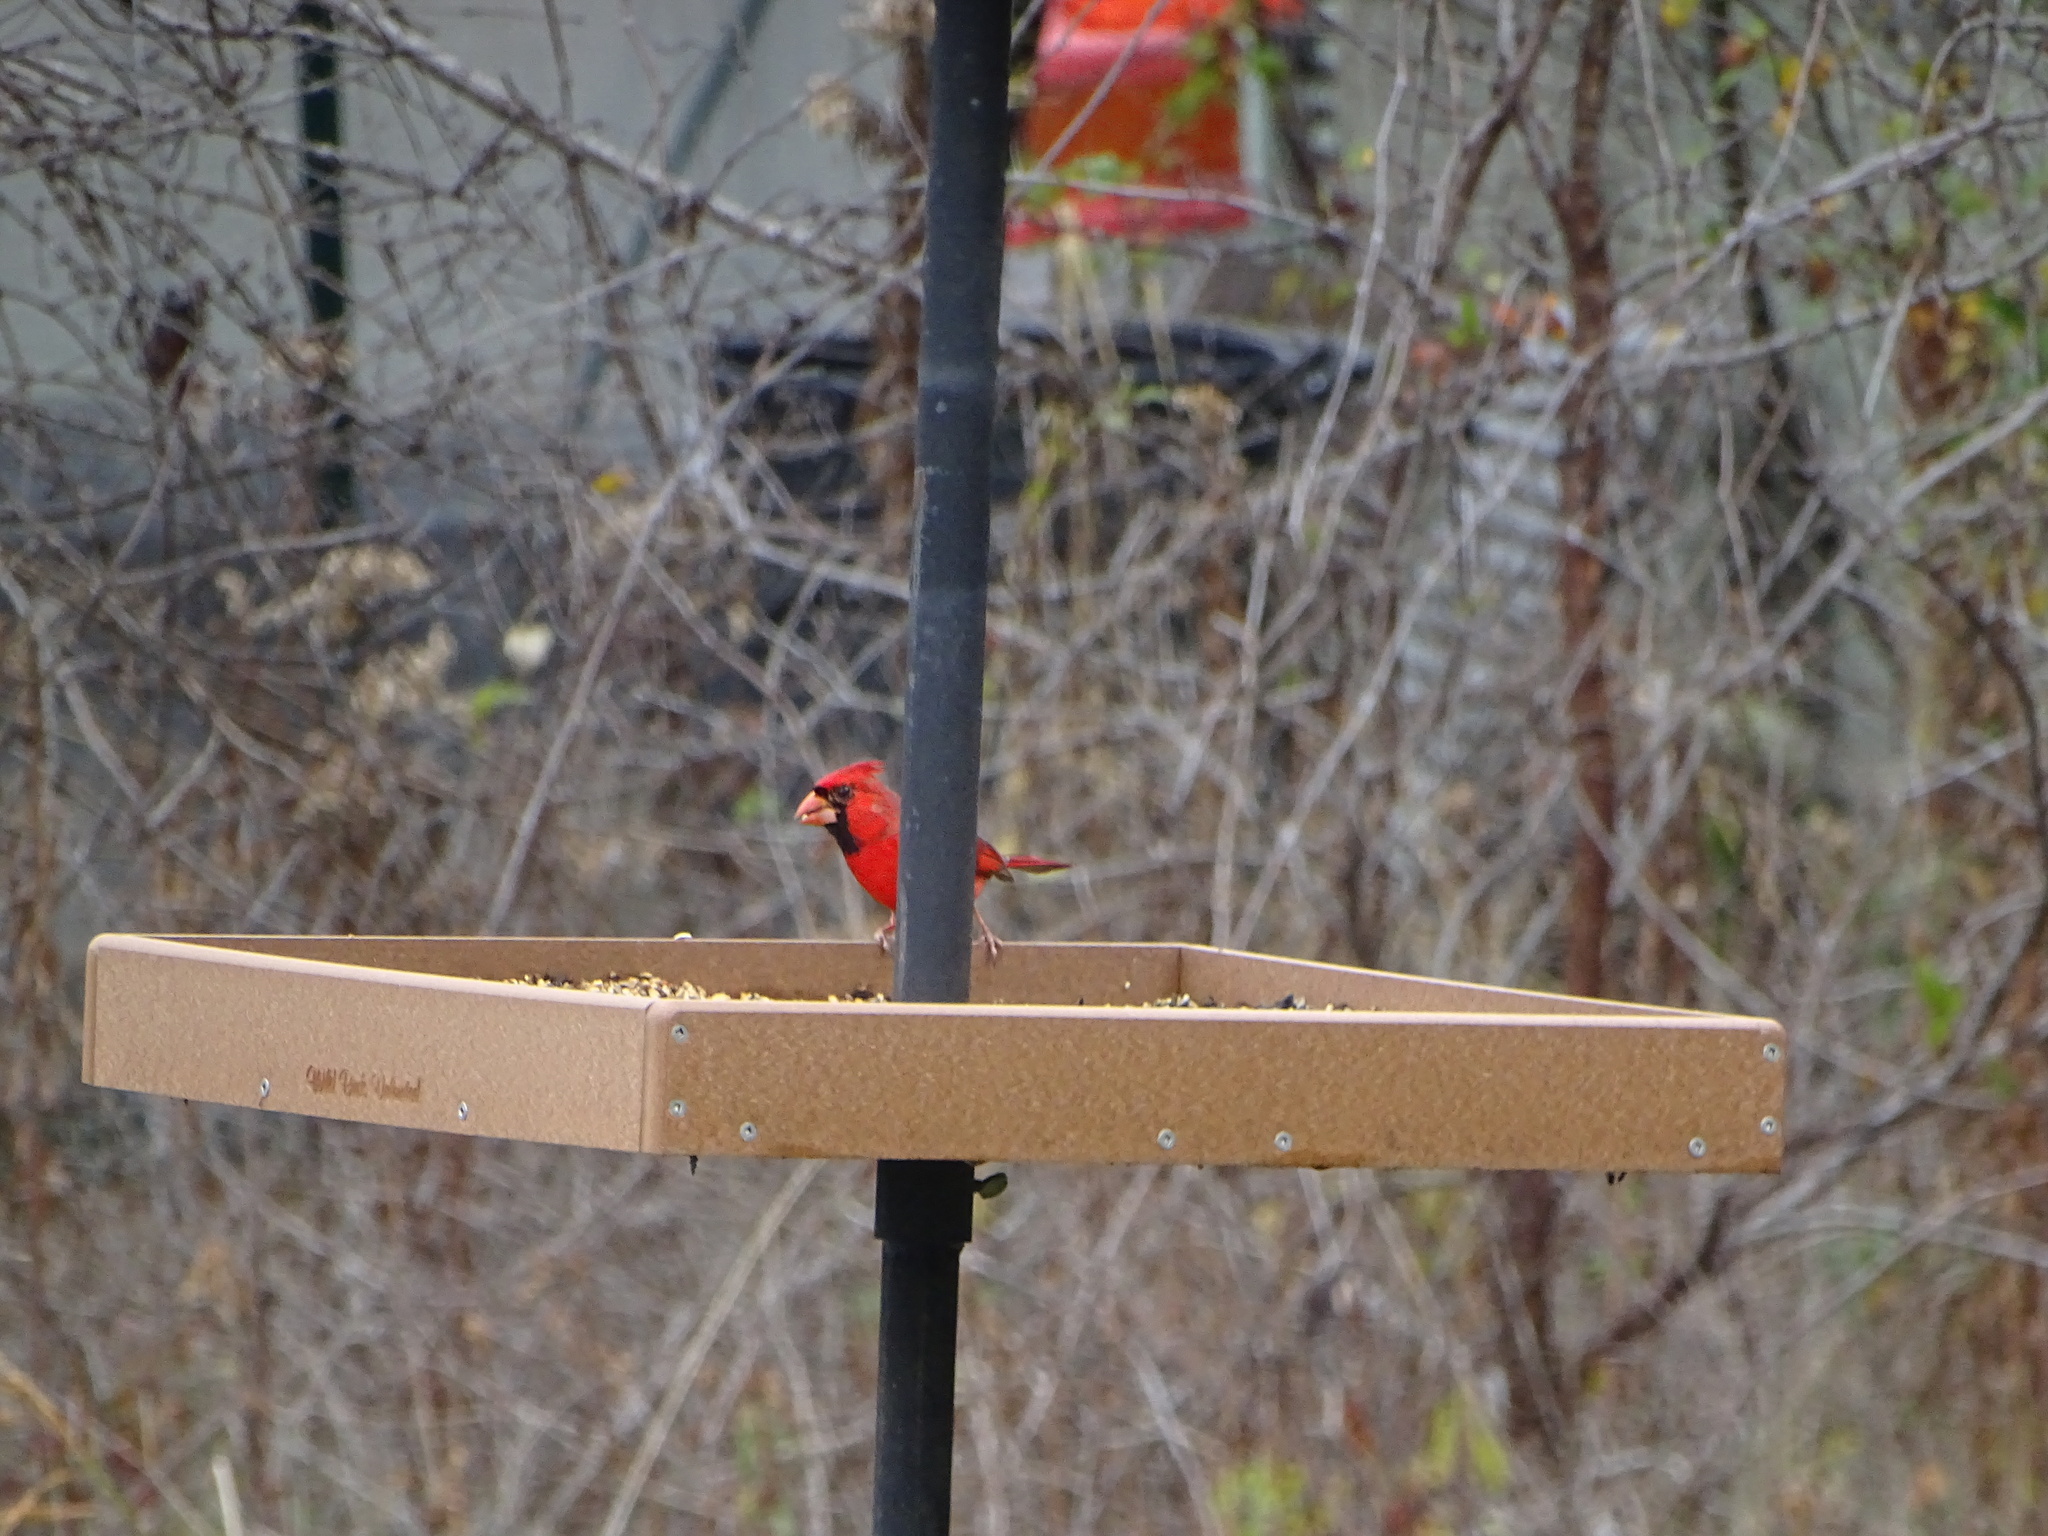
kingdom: Animalia
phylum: Chordata
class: Aves
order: Passeriformes
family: Cardinalidae
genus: Cardinalis
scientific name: Cardinalis cardinalis
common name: Northern cardinal
